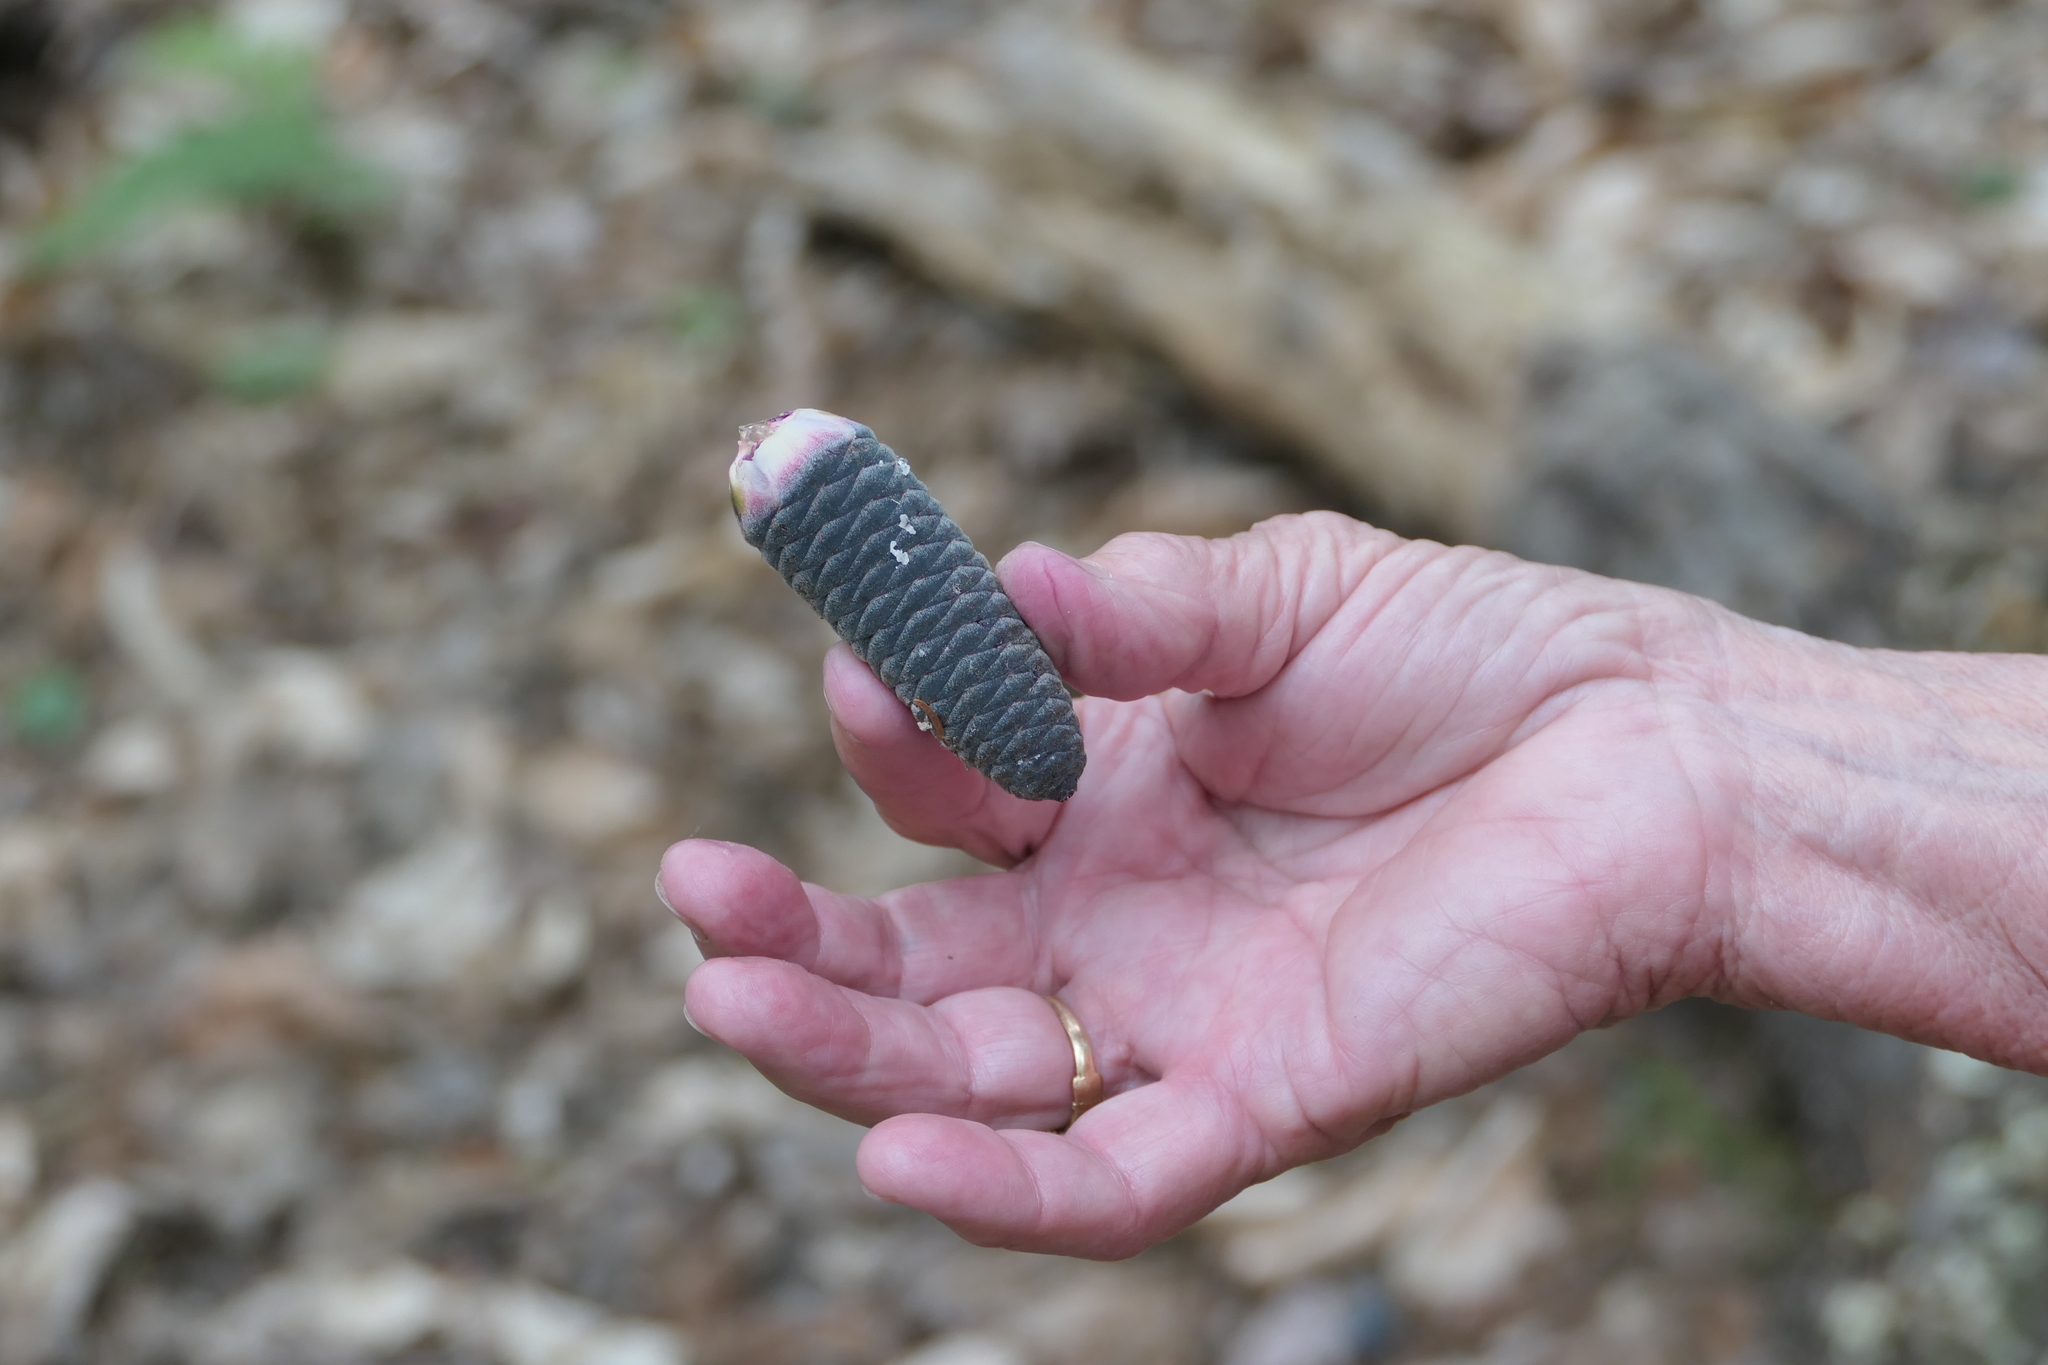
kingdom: Plantae
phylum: Tracheophyta
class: Pinopsida
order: Pinales
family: Pinaceae
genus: Abies
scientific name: Abies balsamea
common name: Balsam fir
